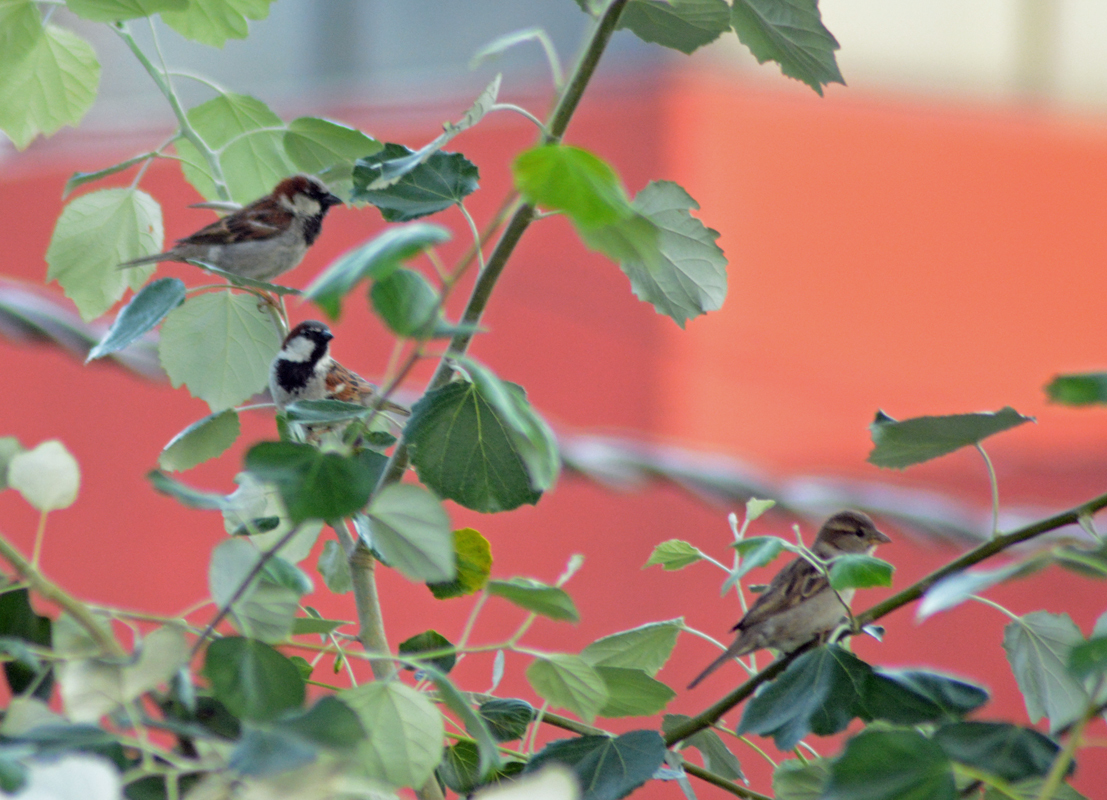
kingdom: Animalia
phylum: Chordata
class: Aves
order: Passeriformes
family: Passeridae
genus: Passer
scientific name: Passer domesticus
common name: House sparrow
